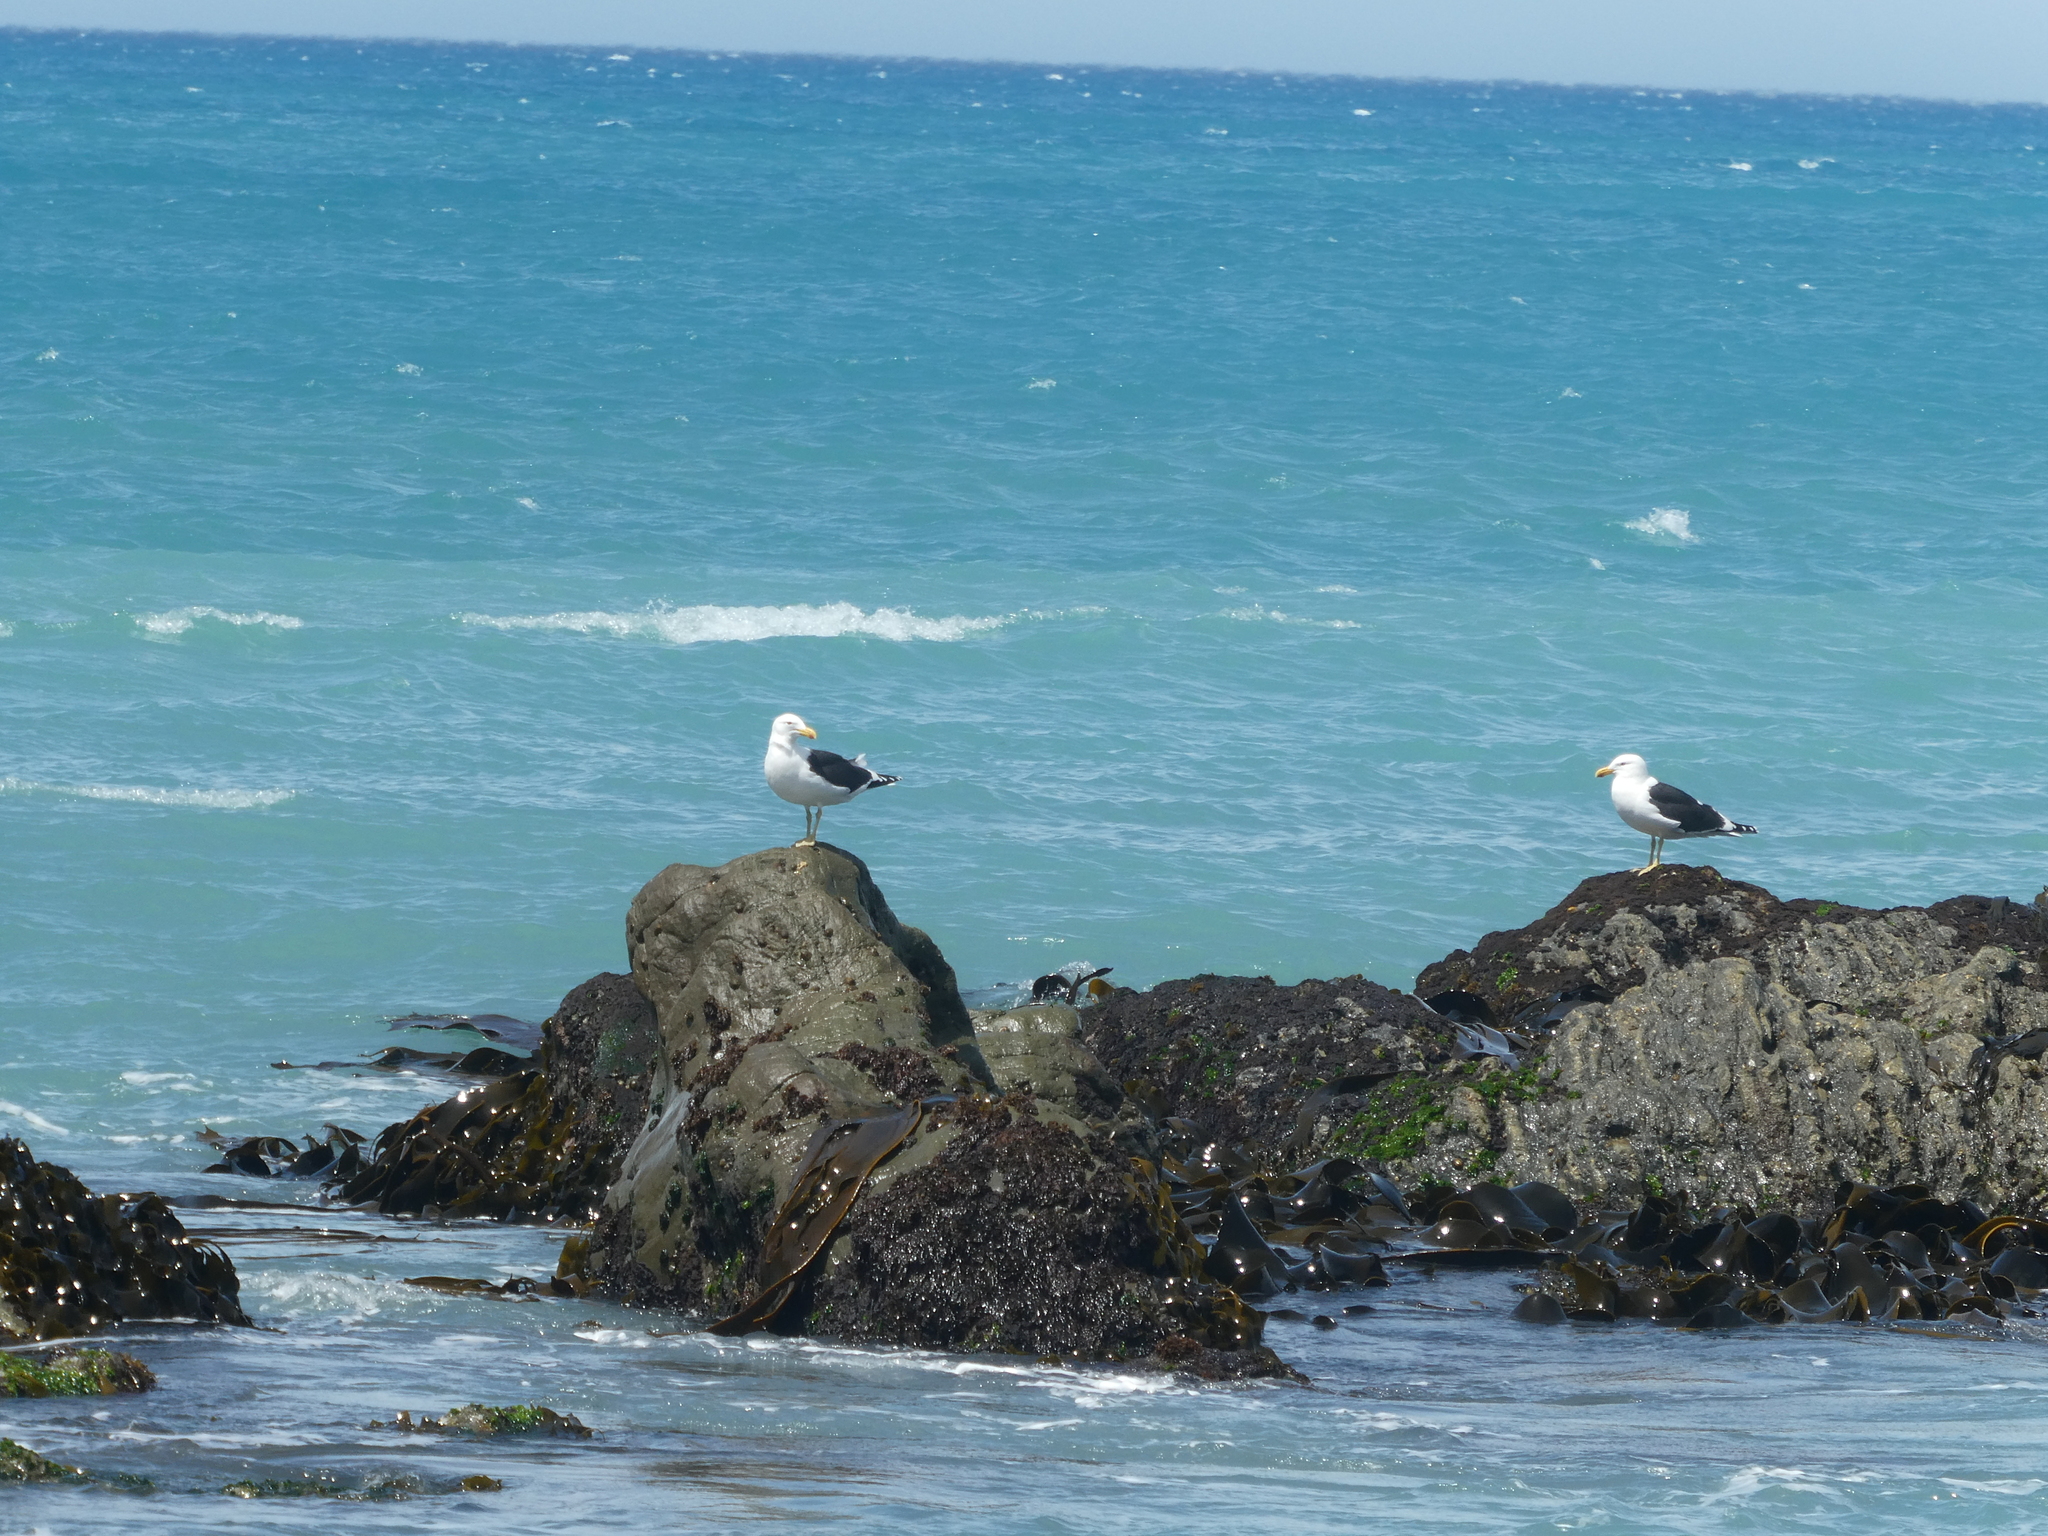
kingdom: Animalia
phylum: Chordata
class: Aves
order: Charadriiformes
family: Laridae
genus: Larus
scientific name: Larus dominicanus
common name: Kelp gull
